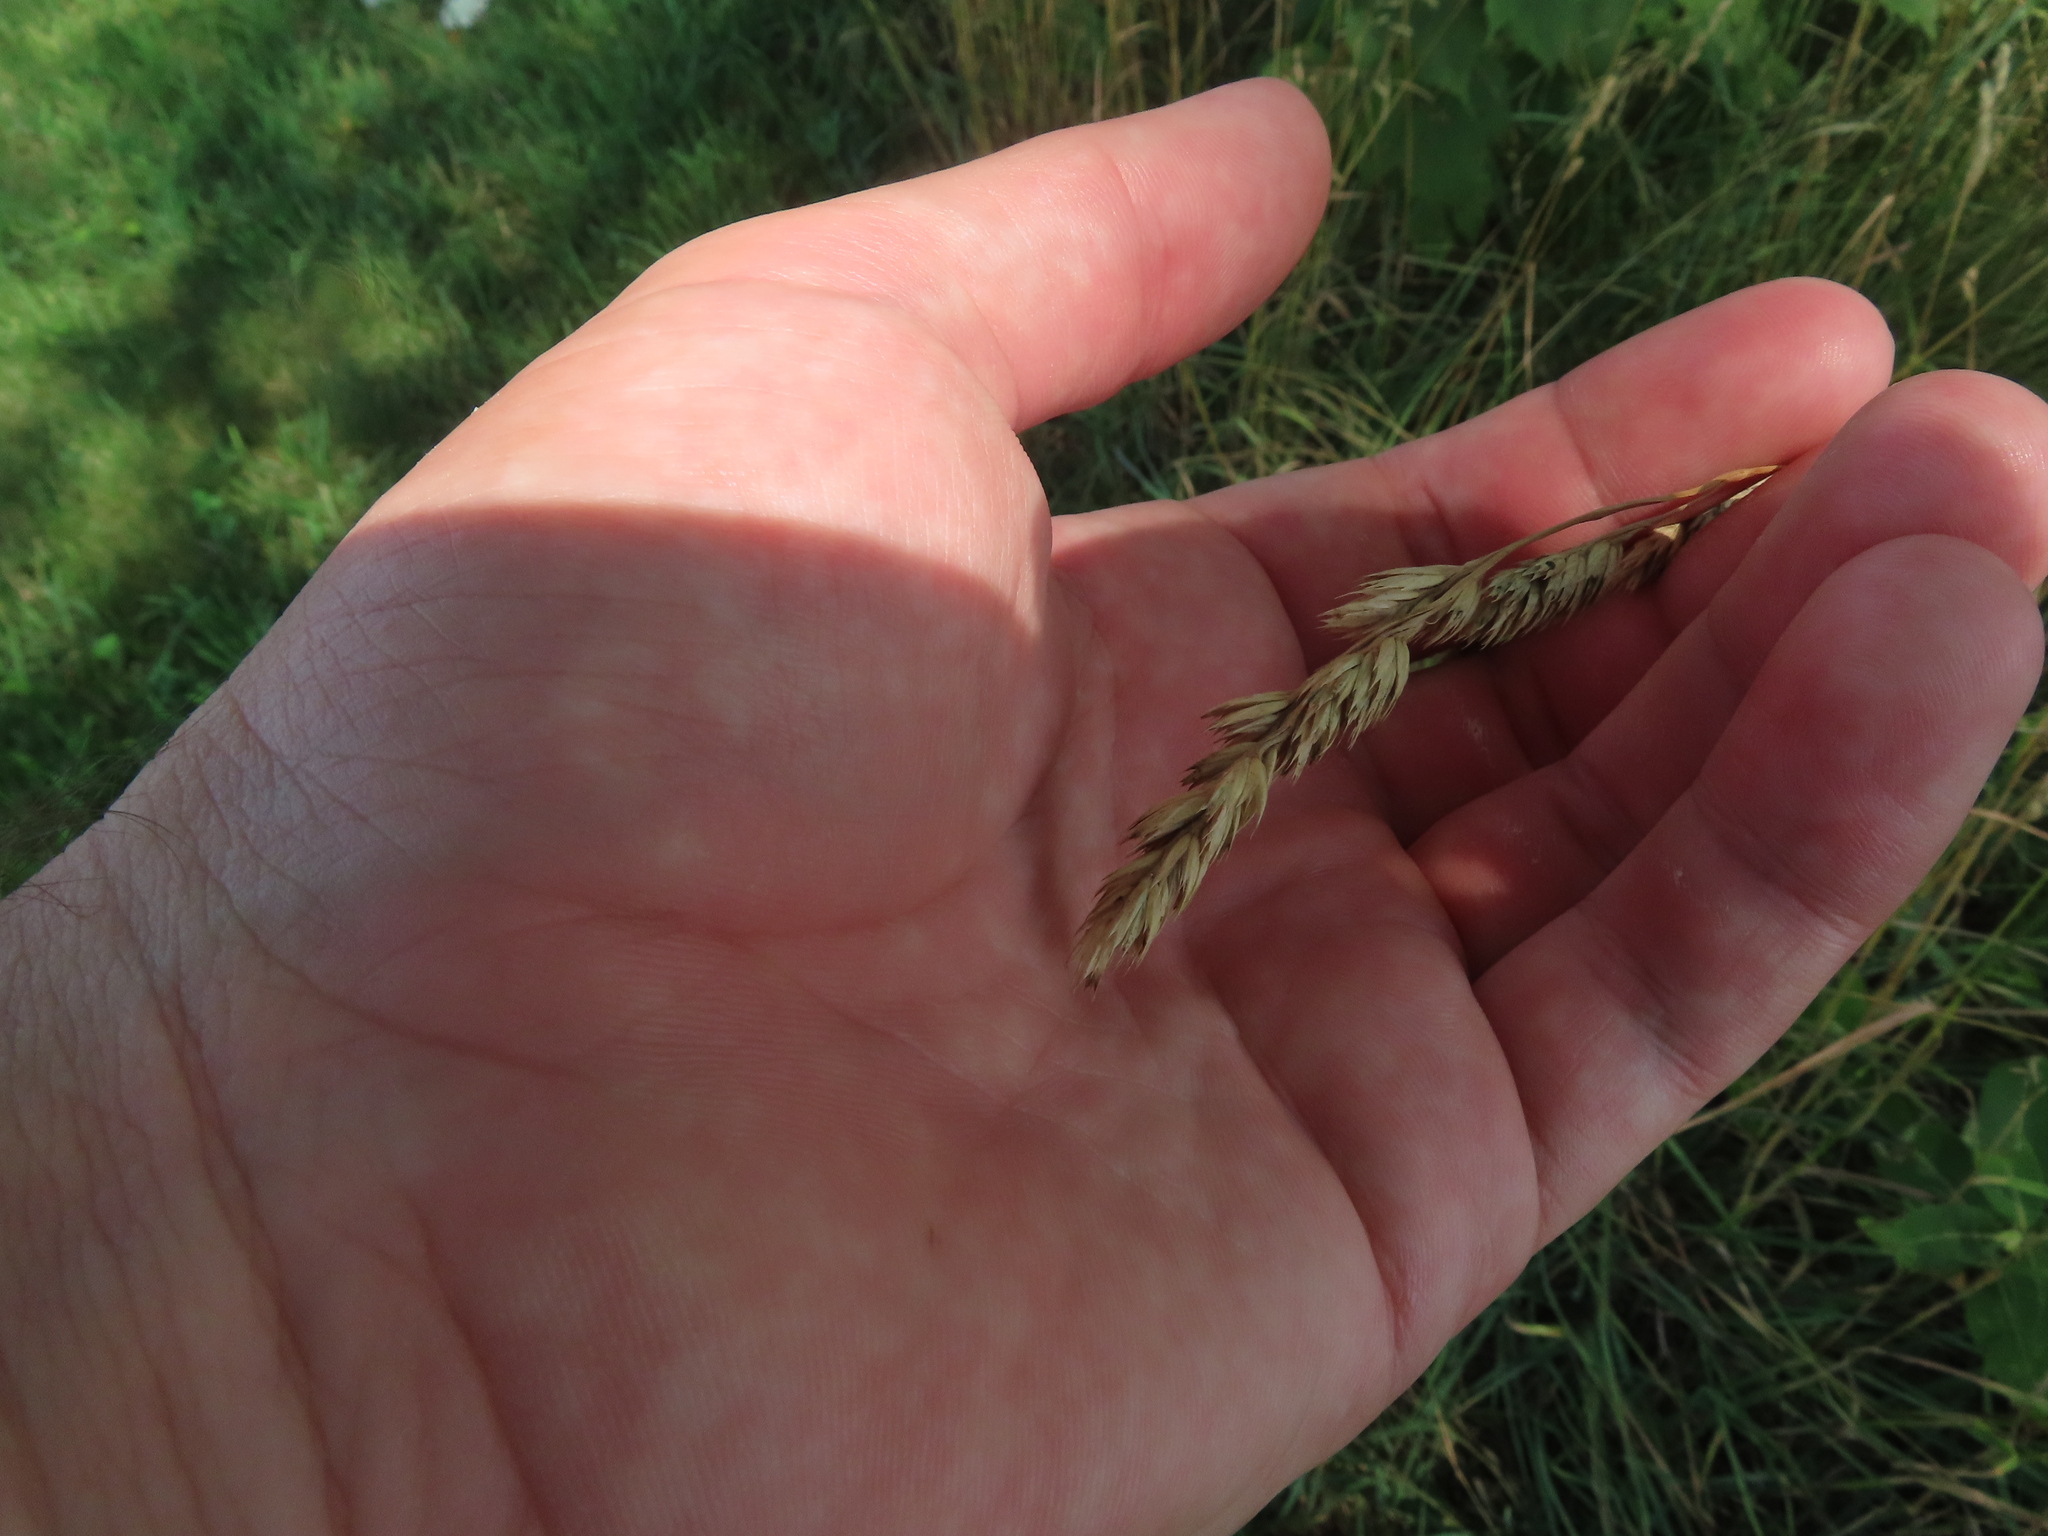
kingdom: Plantae
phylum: Tracheophyta
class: Liliopsida
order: Poales
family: Poaceae
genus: Dactylis
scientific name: Dactylis glomerata
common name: Orchardgrass
